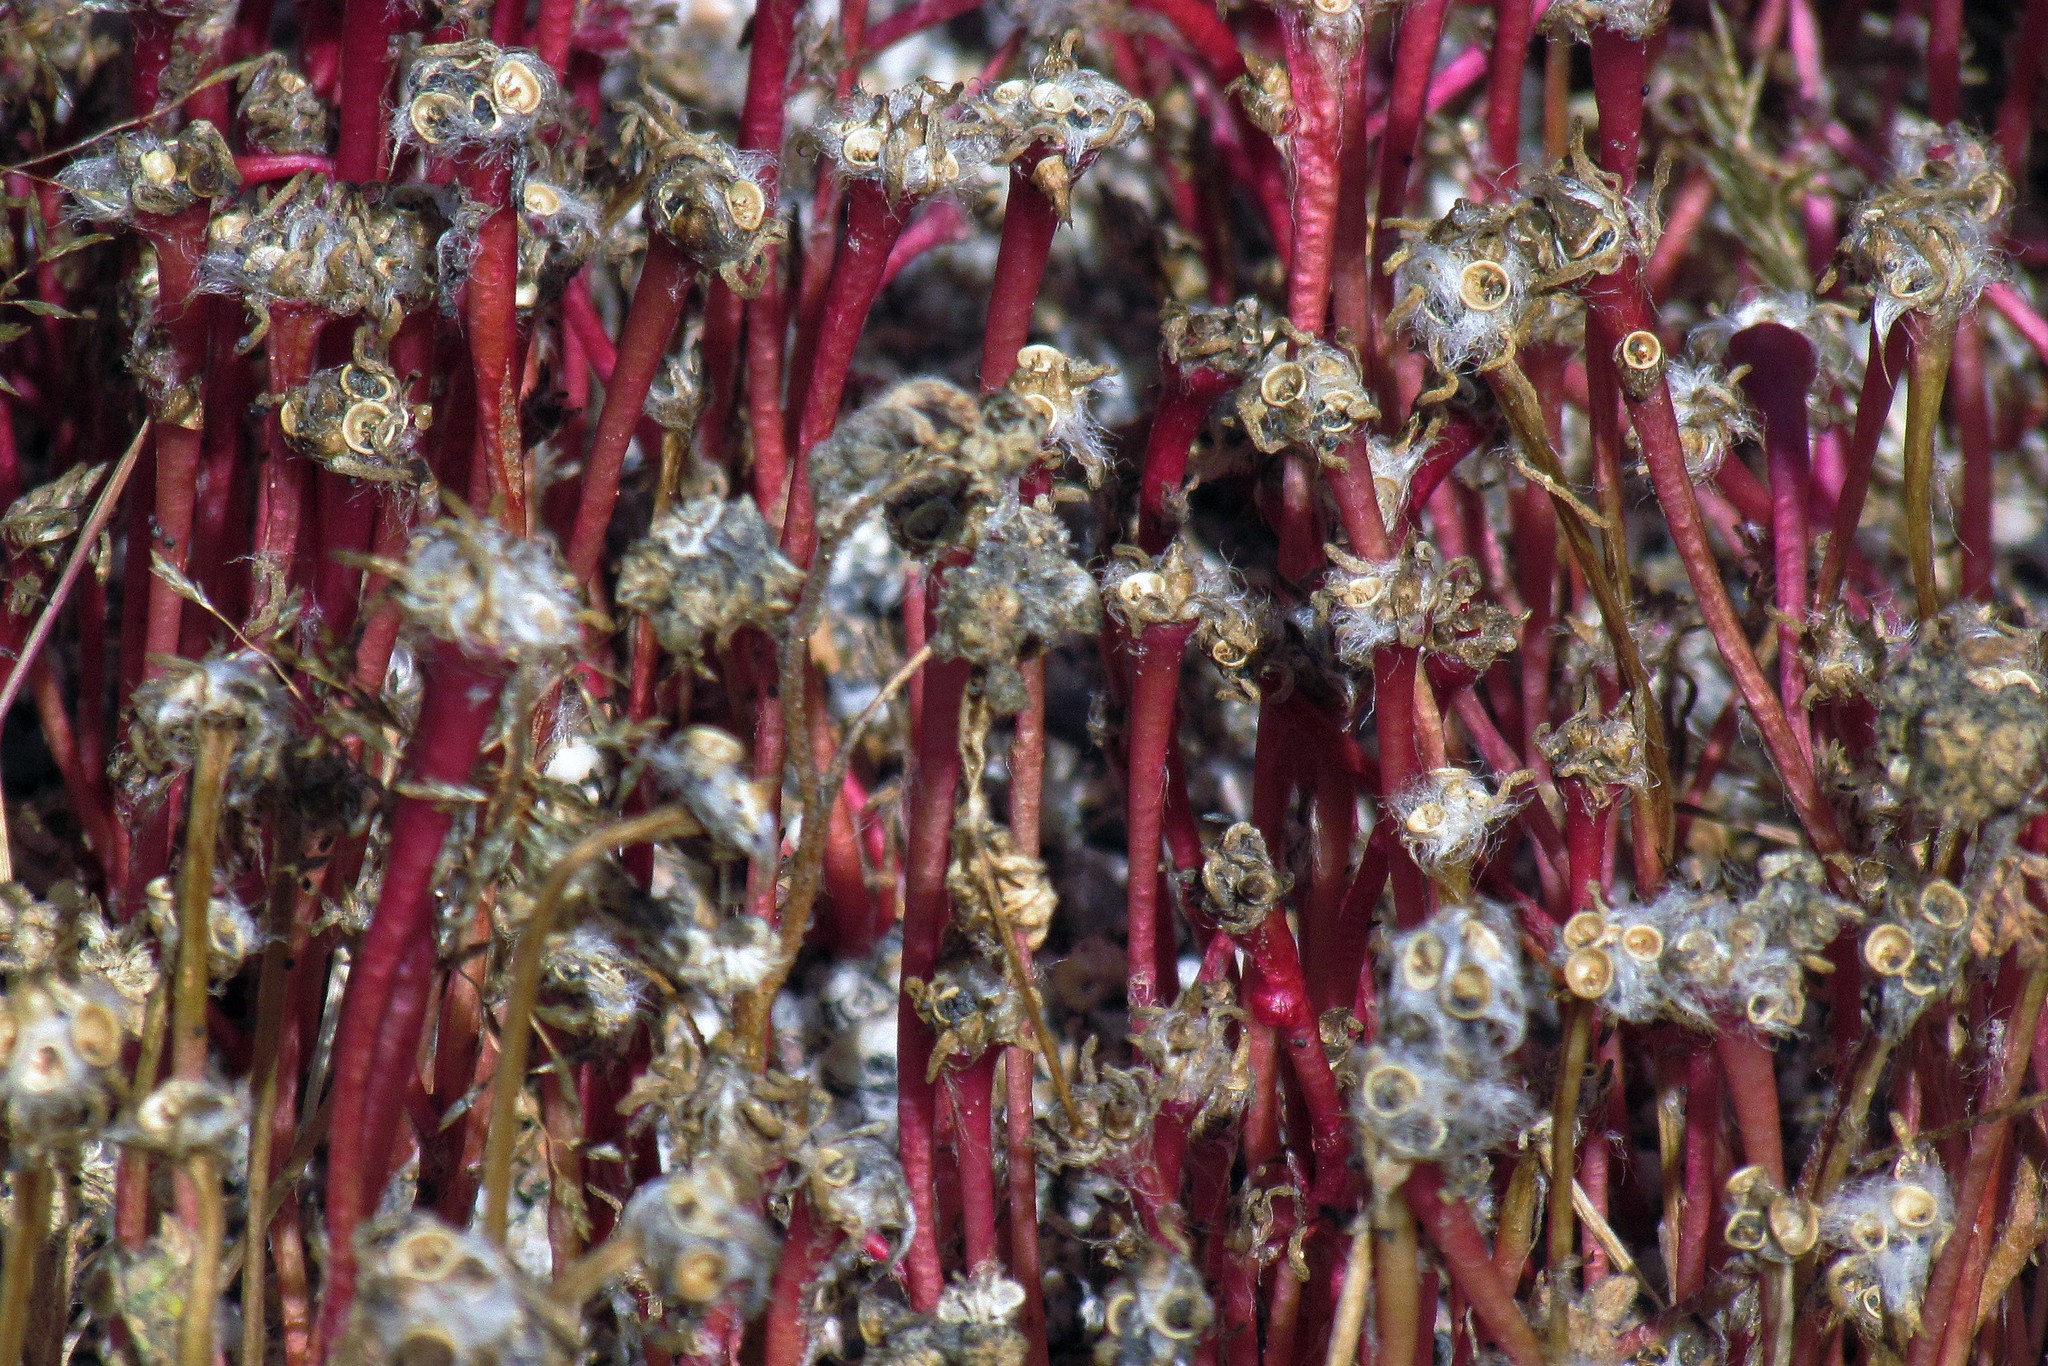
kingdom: Plantae
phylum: Tracheophyta
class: Magnoliopsida
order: Caryophyllales
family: Portulacaceae
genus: Portulaca
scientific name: Portulaca pilosa
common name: Kiss me quick
